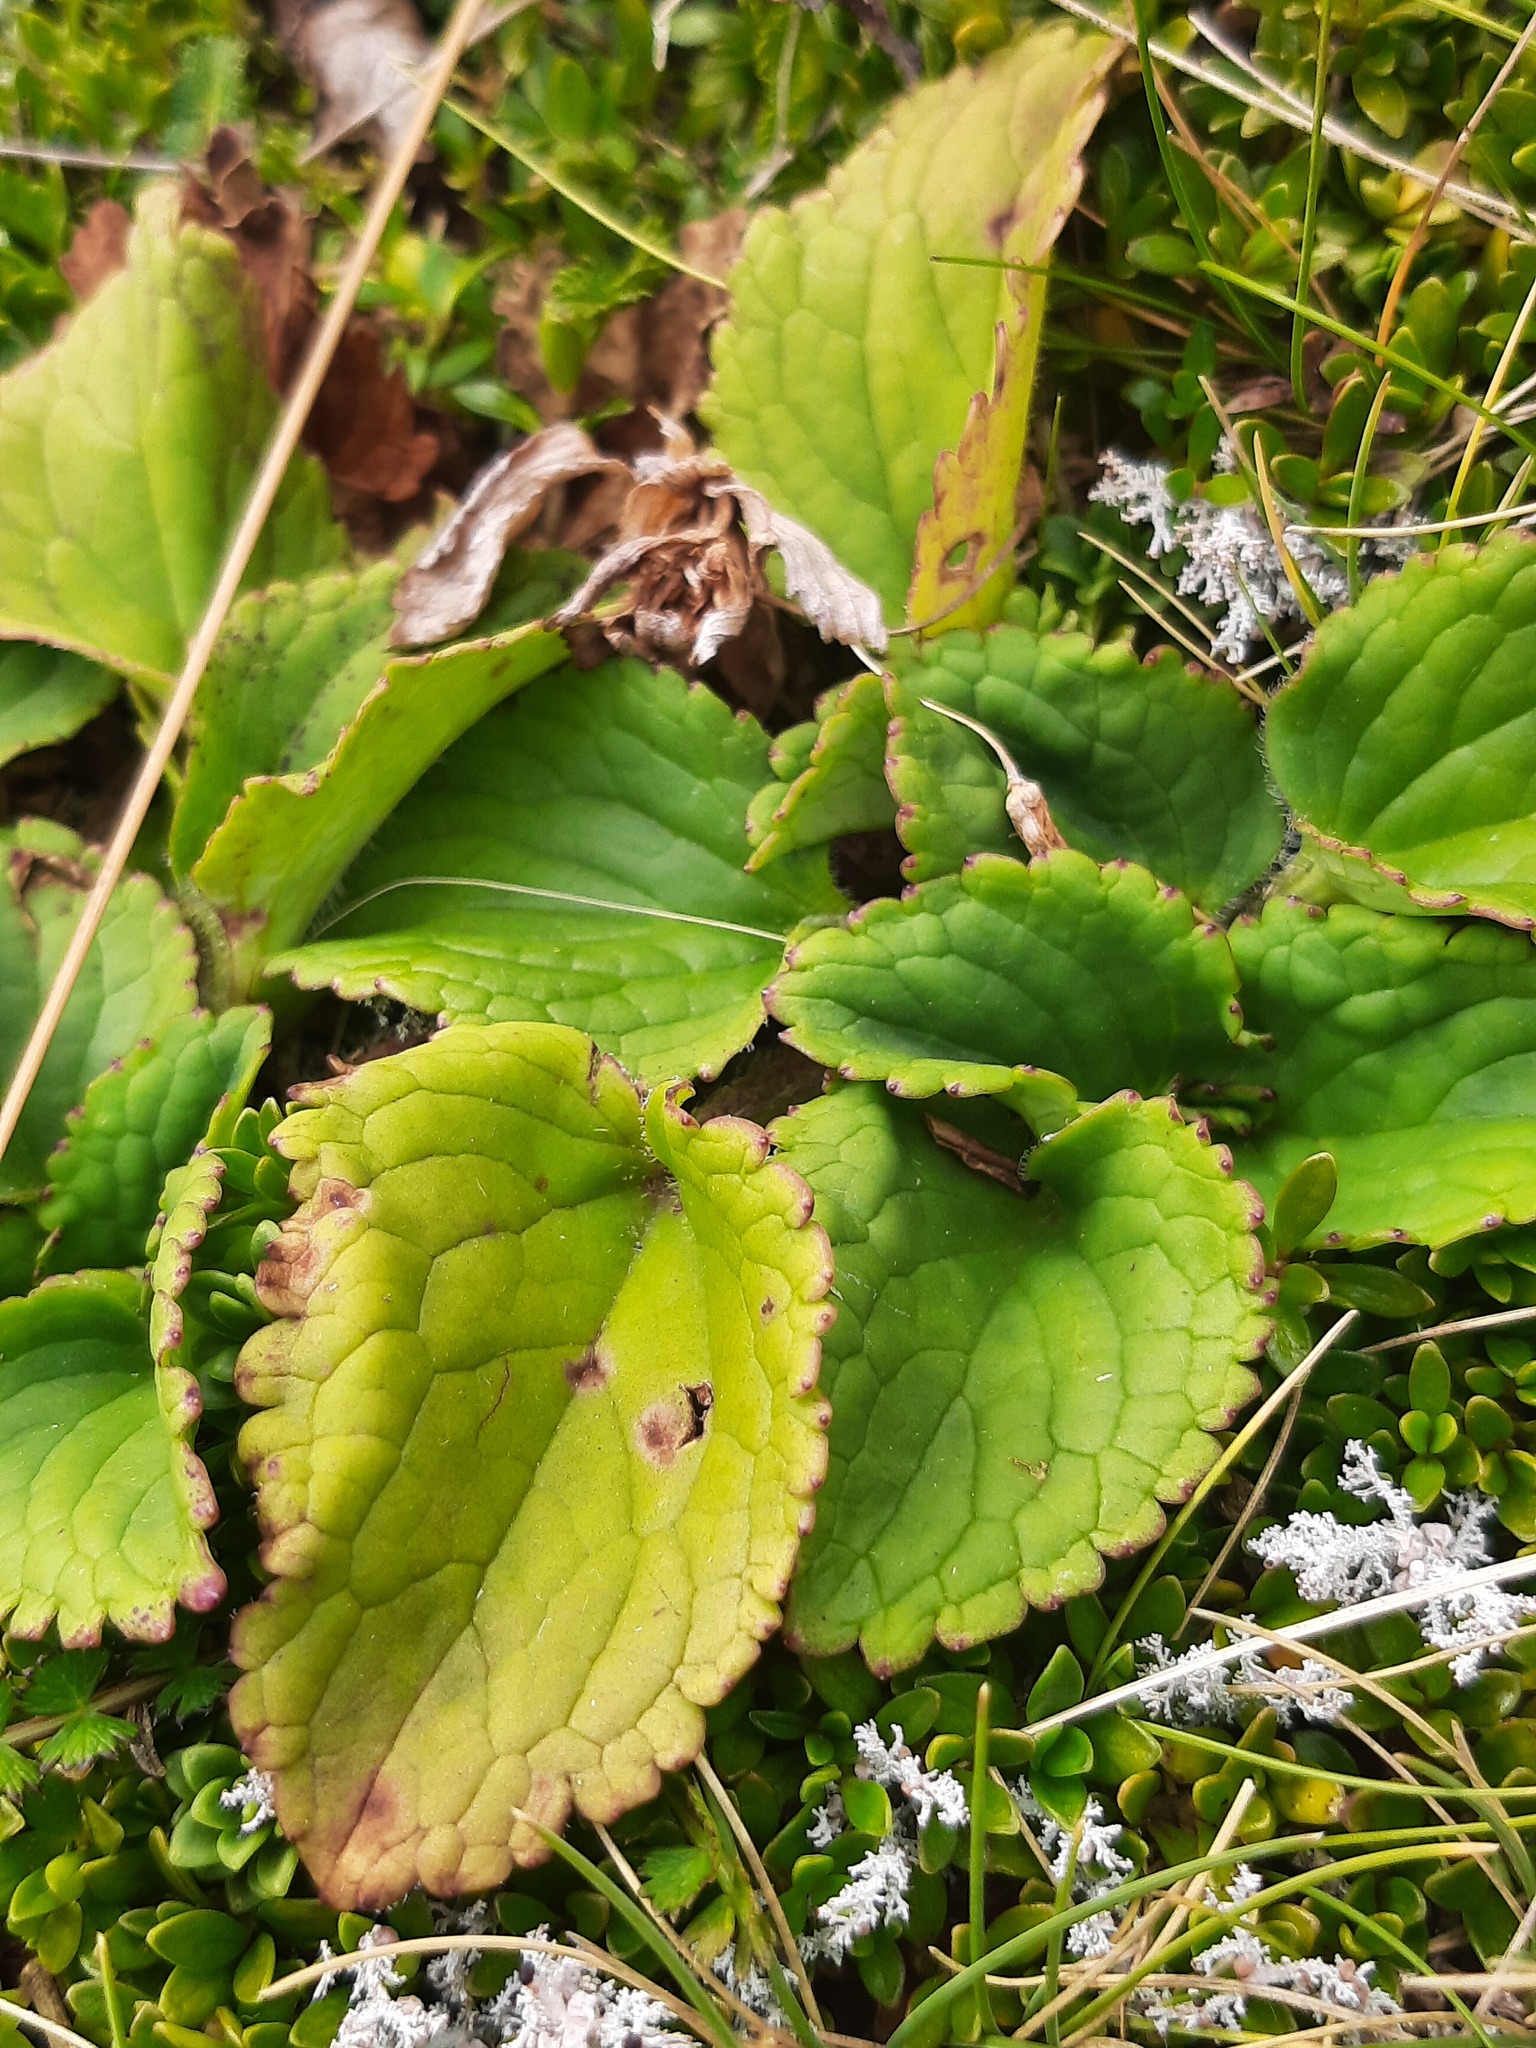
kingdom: Plantae
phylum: Tracheophyta
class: Magnoliopsida
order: Lamiales
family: Plantaginaceae
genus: Ourisia
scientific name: Ourisia macrophylla
